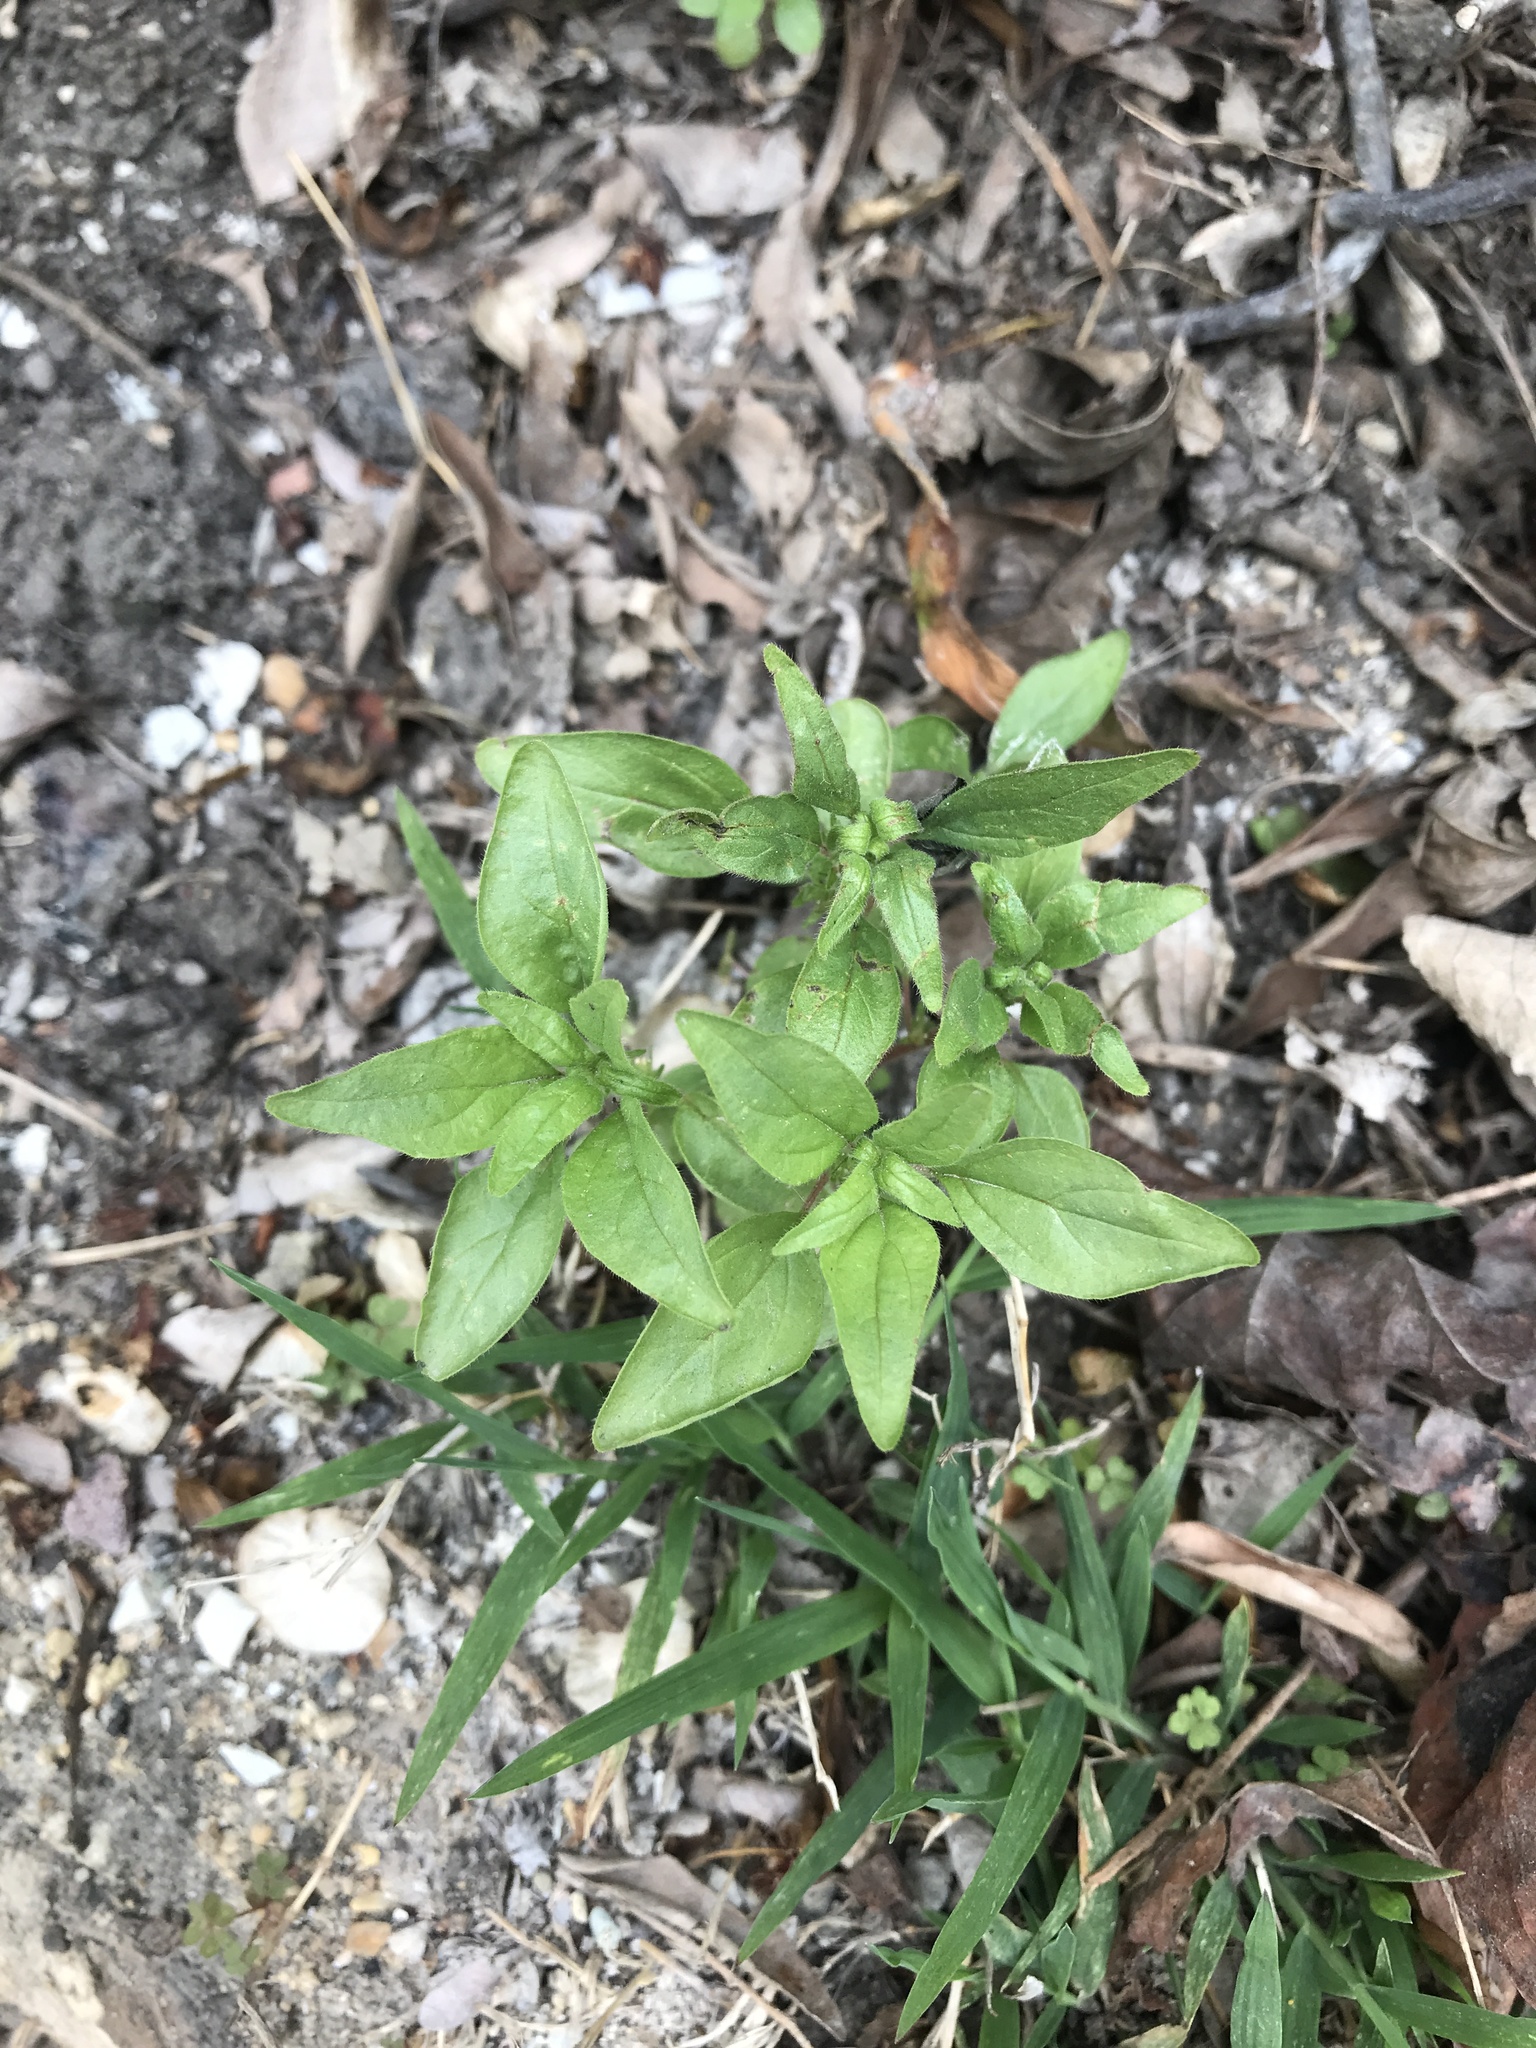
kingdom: Plantae
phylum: Tracheophyta
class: Magnoliopsida
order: Rosales
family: Urticaceae
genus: Parietaria
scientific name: Parietaria pensylvanica
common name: Pennsylvania pellitory
